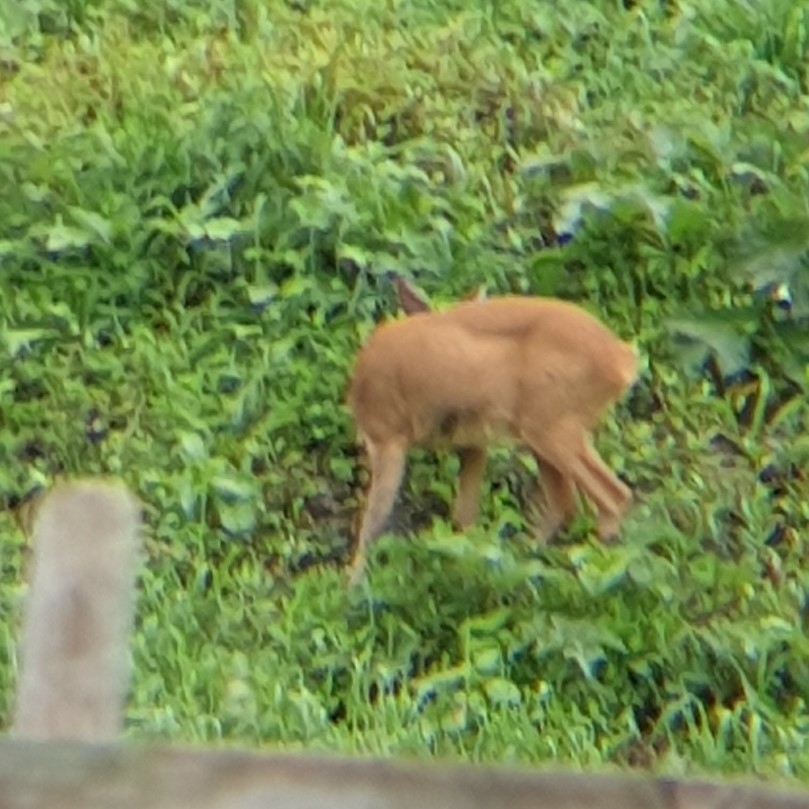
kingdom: Animalia
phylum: Chordata
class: Mammalia
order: Artiodactyla
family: Cervidae
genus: Capreolus
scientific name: Capreolus capreolus
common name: Western roe deer
